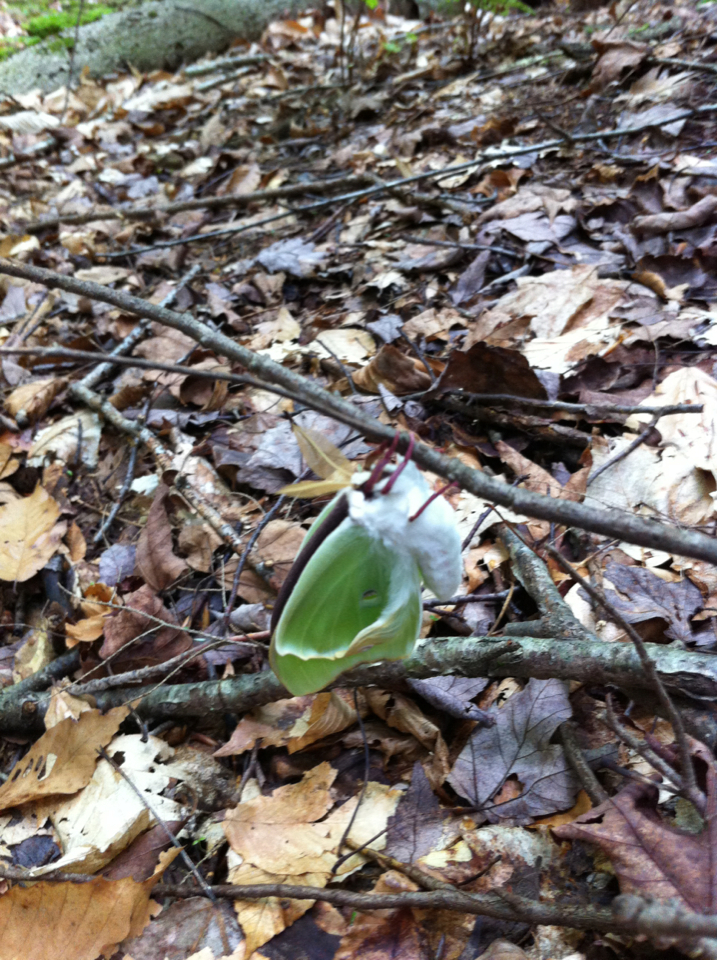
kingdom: Animalia
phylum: Arthropoda
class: Insecta
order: Lepidoptera
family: Saturniidae
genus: Actias
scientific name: Actias luna
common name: Luna moth
